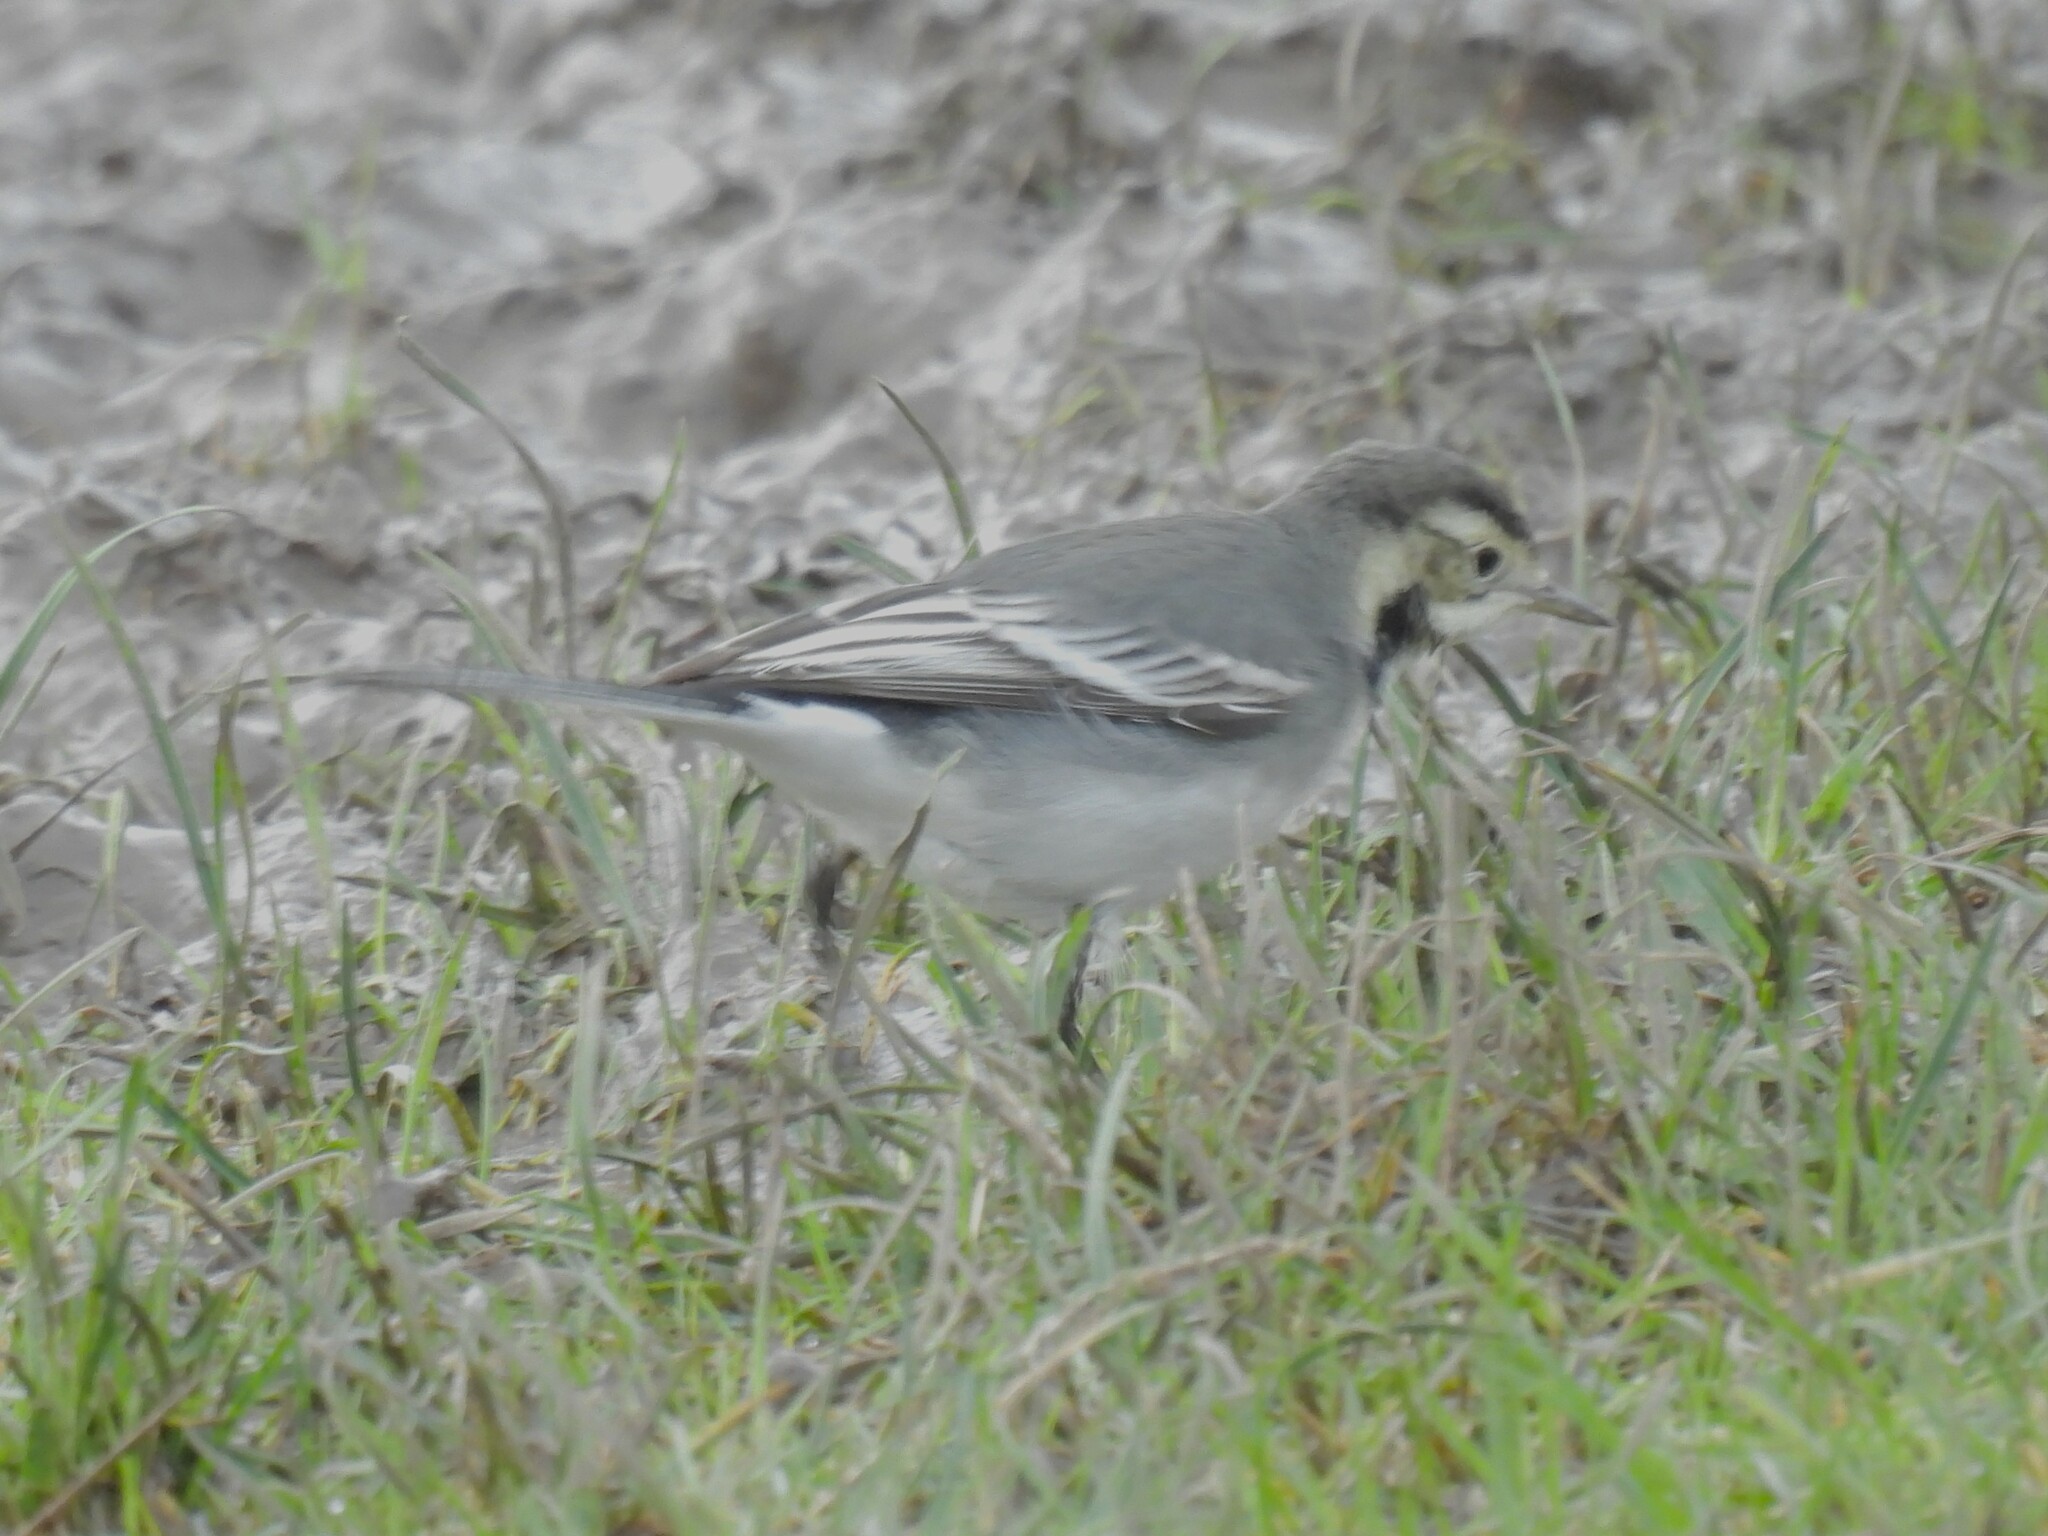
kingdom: Animalia
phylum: Chordata
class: Aves
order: Passeriformes
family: Motacillidae
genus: Motacilla
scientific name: Motacilla alba
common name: White wagtail
